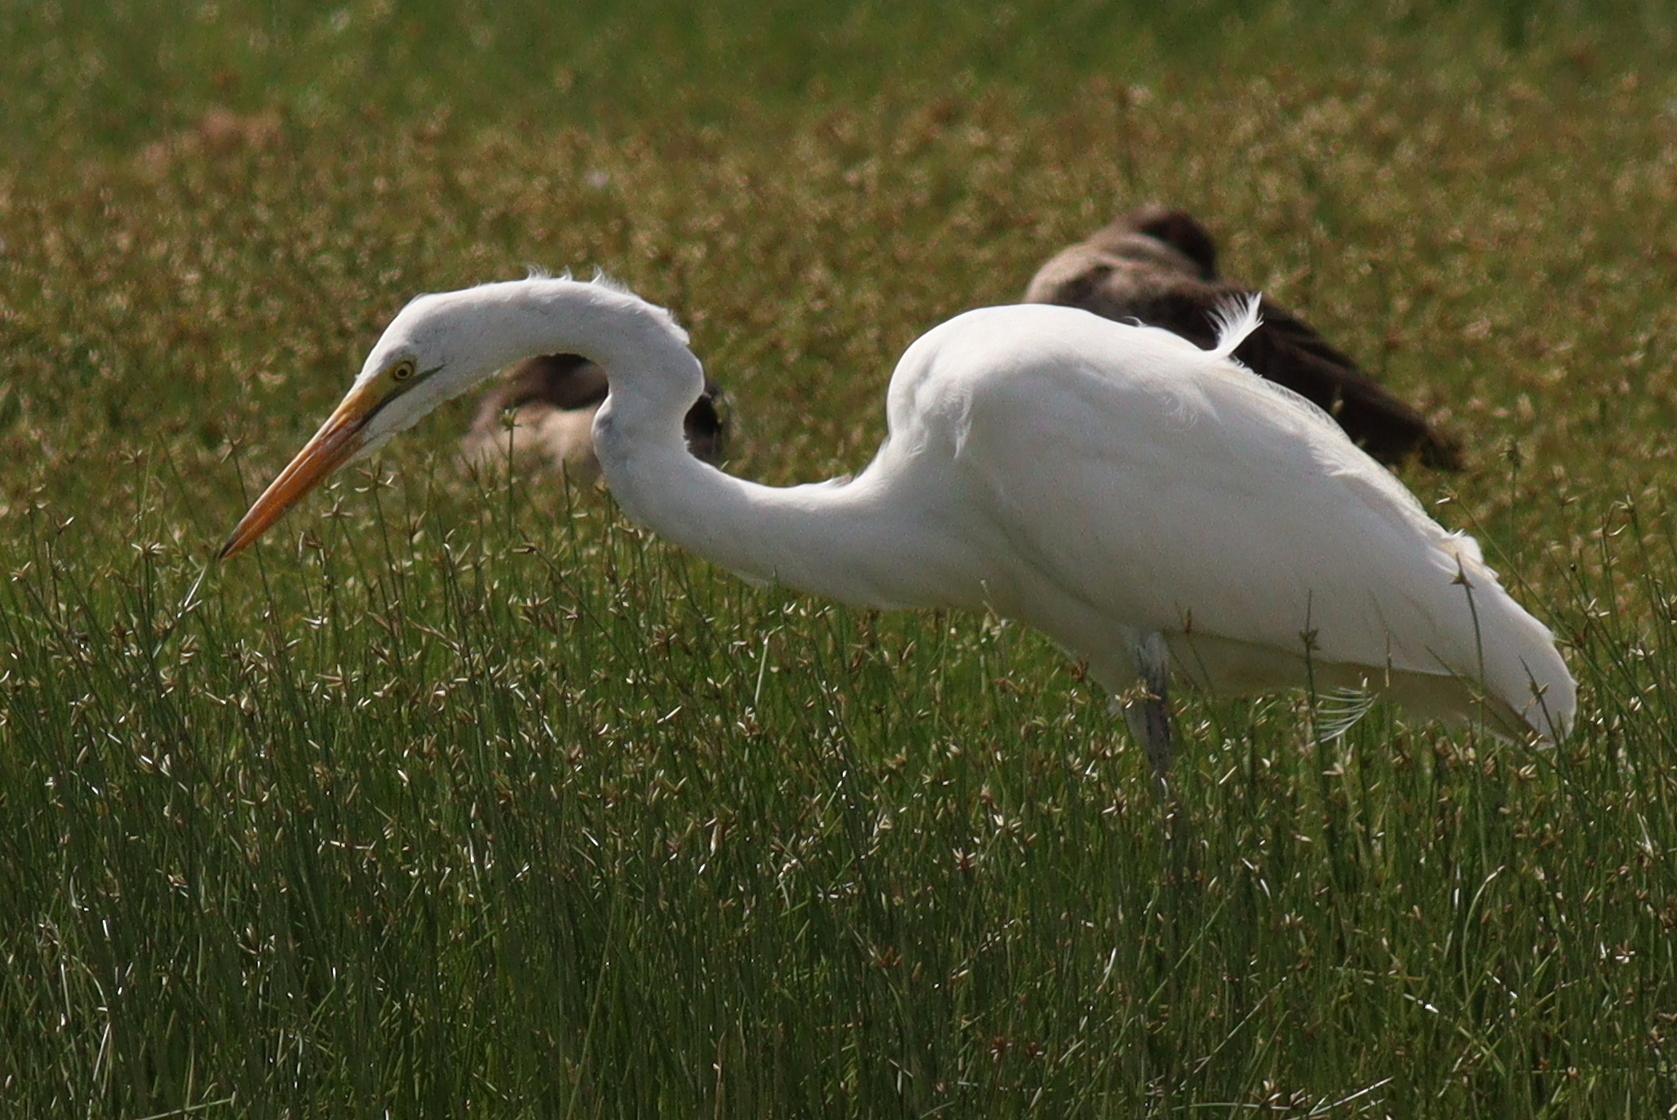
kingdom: Animalia
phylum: Chordata
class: Aves
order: Pelecaniformes
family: Ardeidae
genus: Ardea
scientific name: Ardea alba
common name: Great egret
